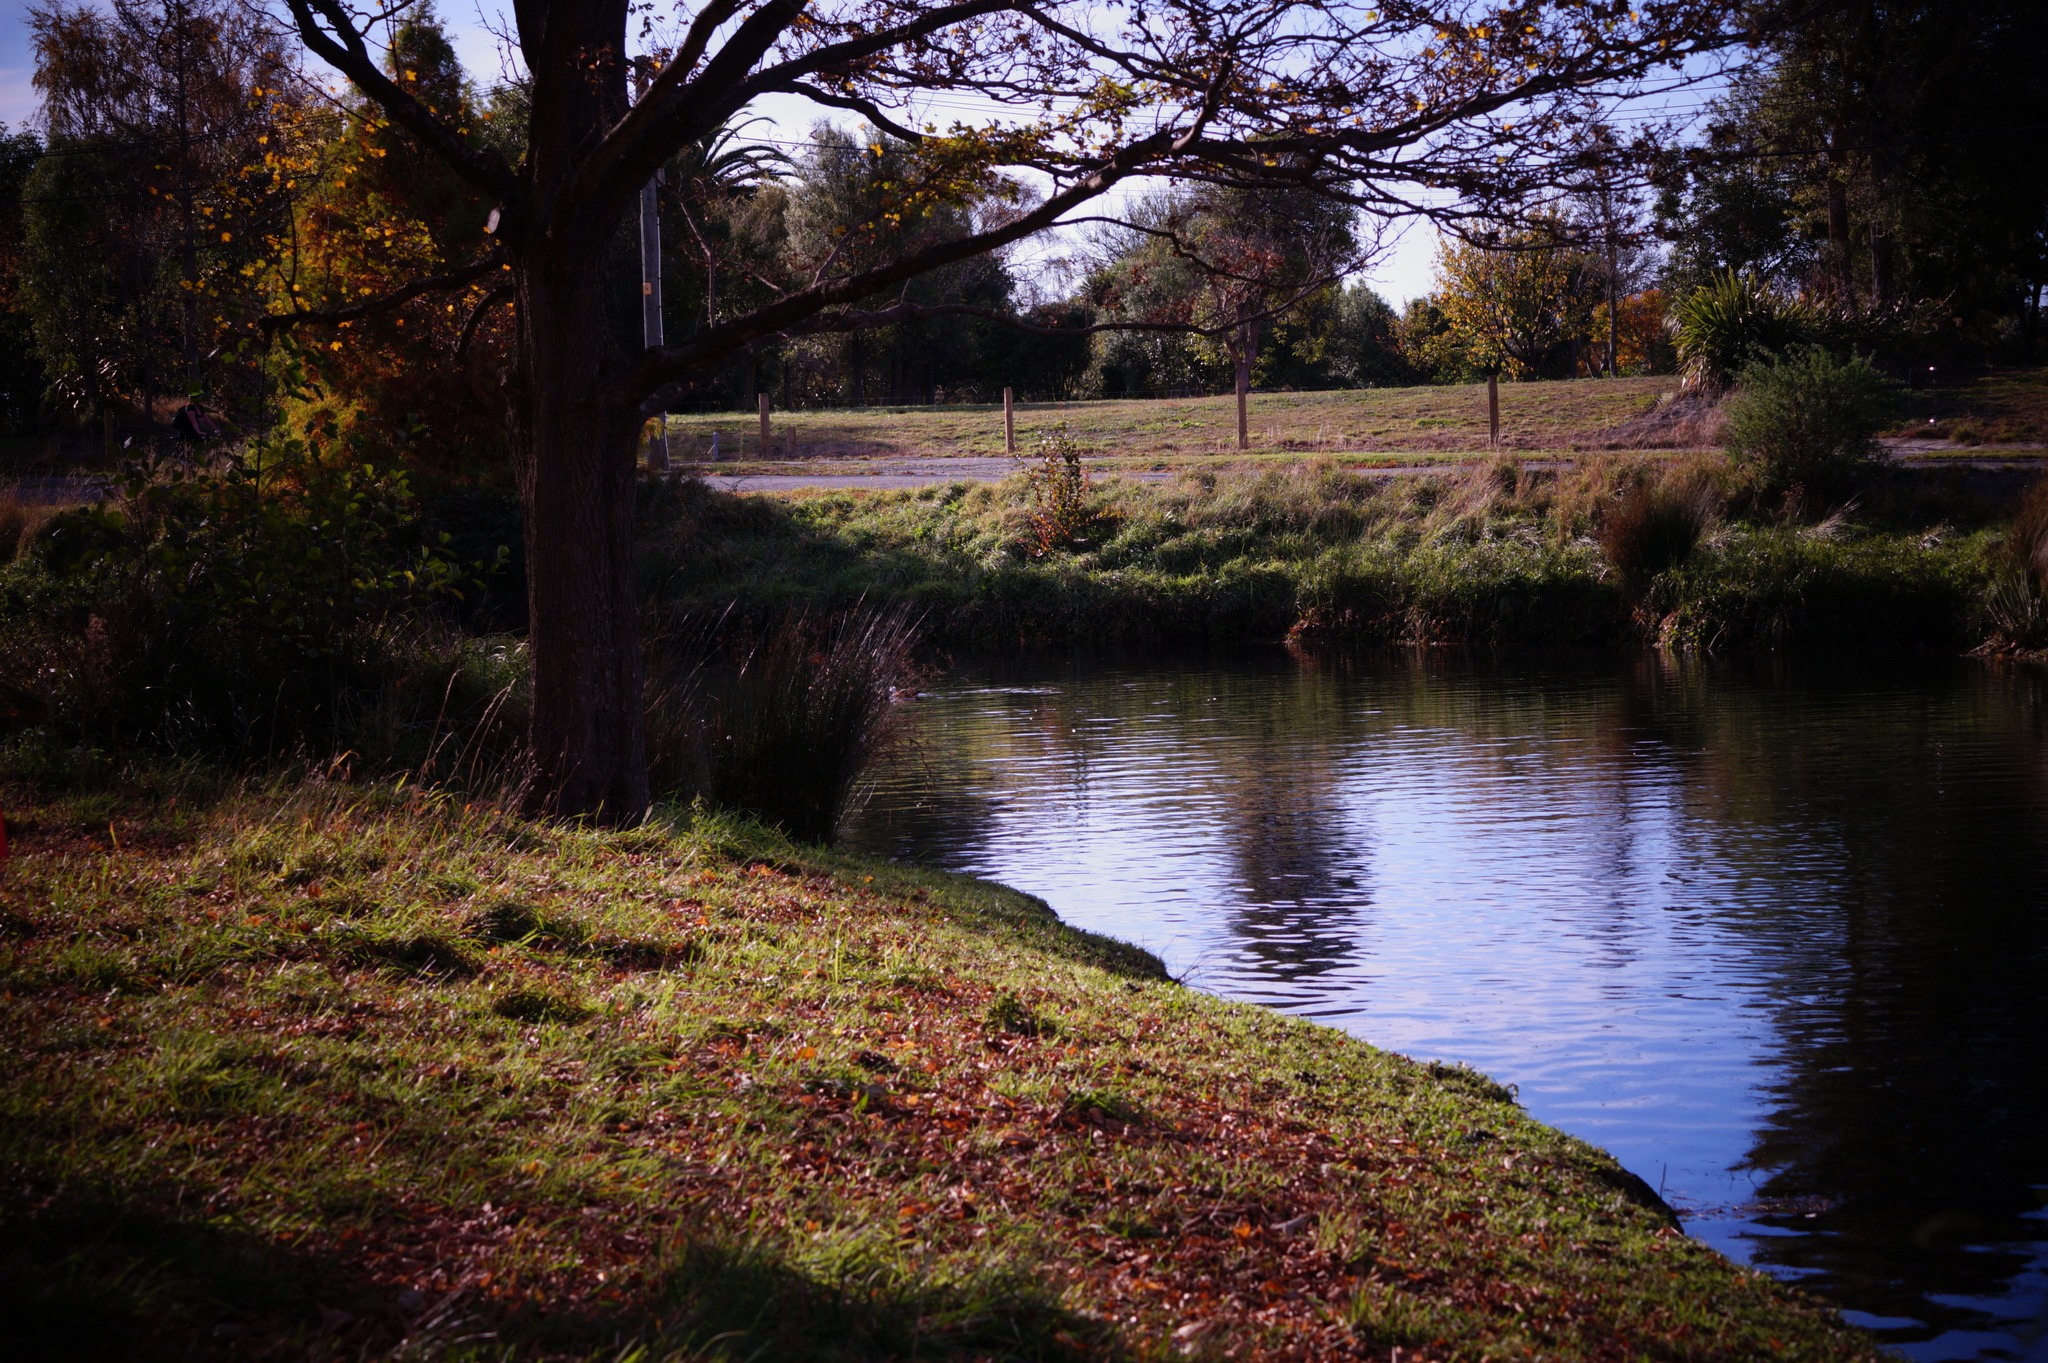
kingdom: Animalia
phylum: Chordata
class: Aves
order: Anseriformes
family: Anatidae
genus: Tadorna
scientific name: Tadorna variegata
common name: Paradise shelduck
